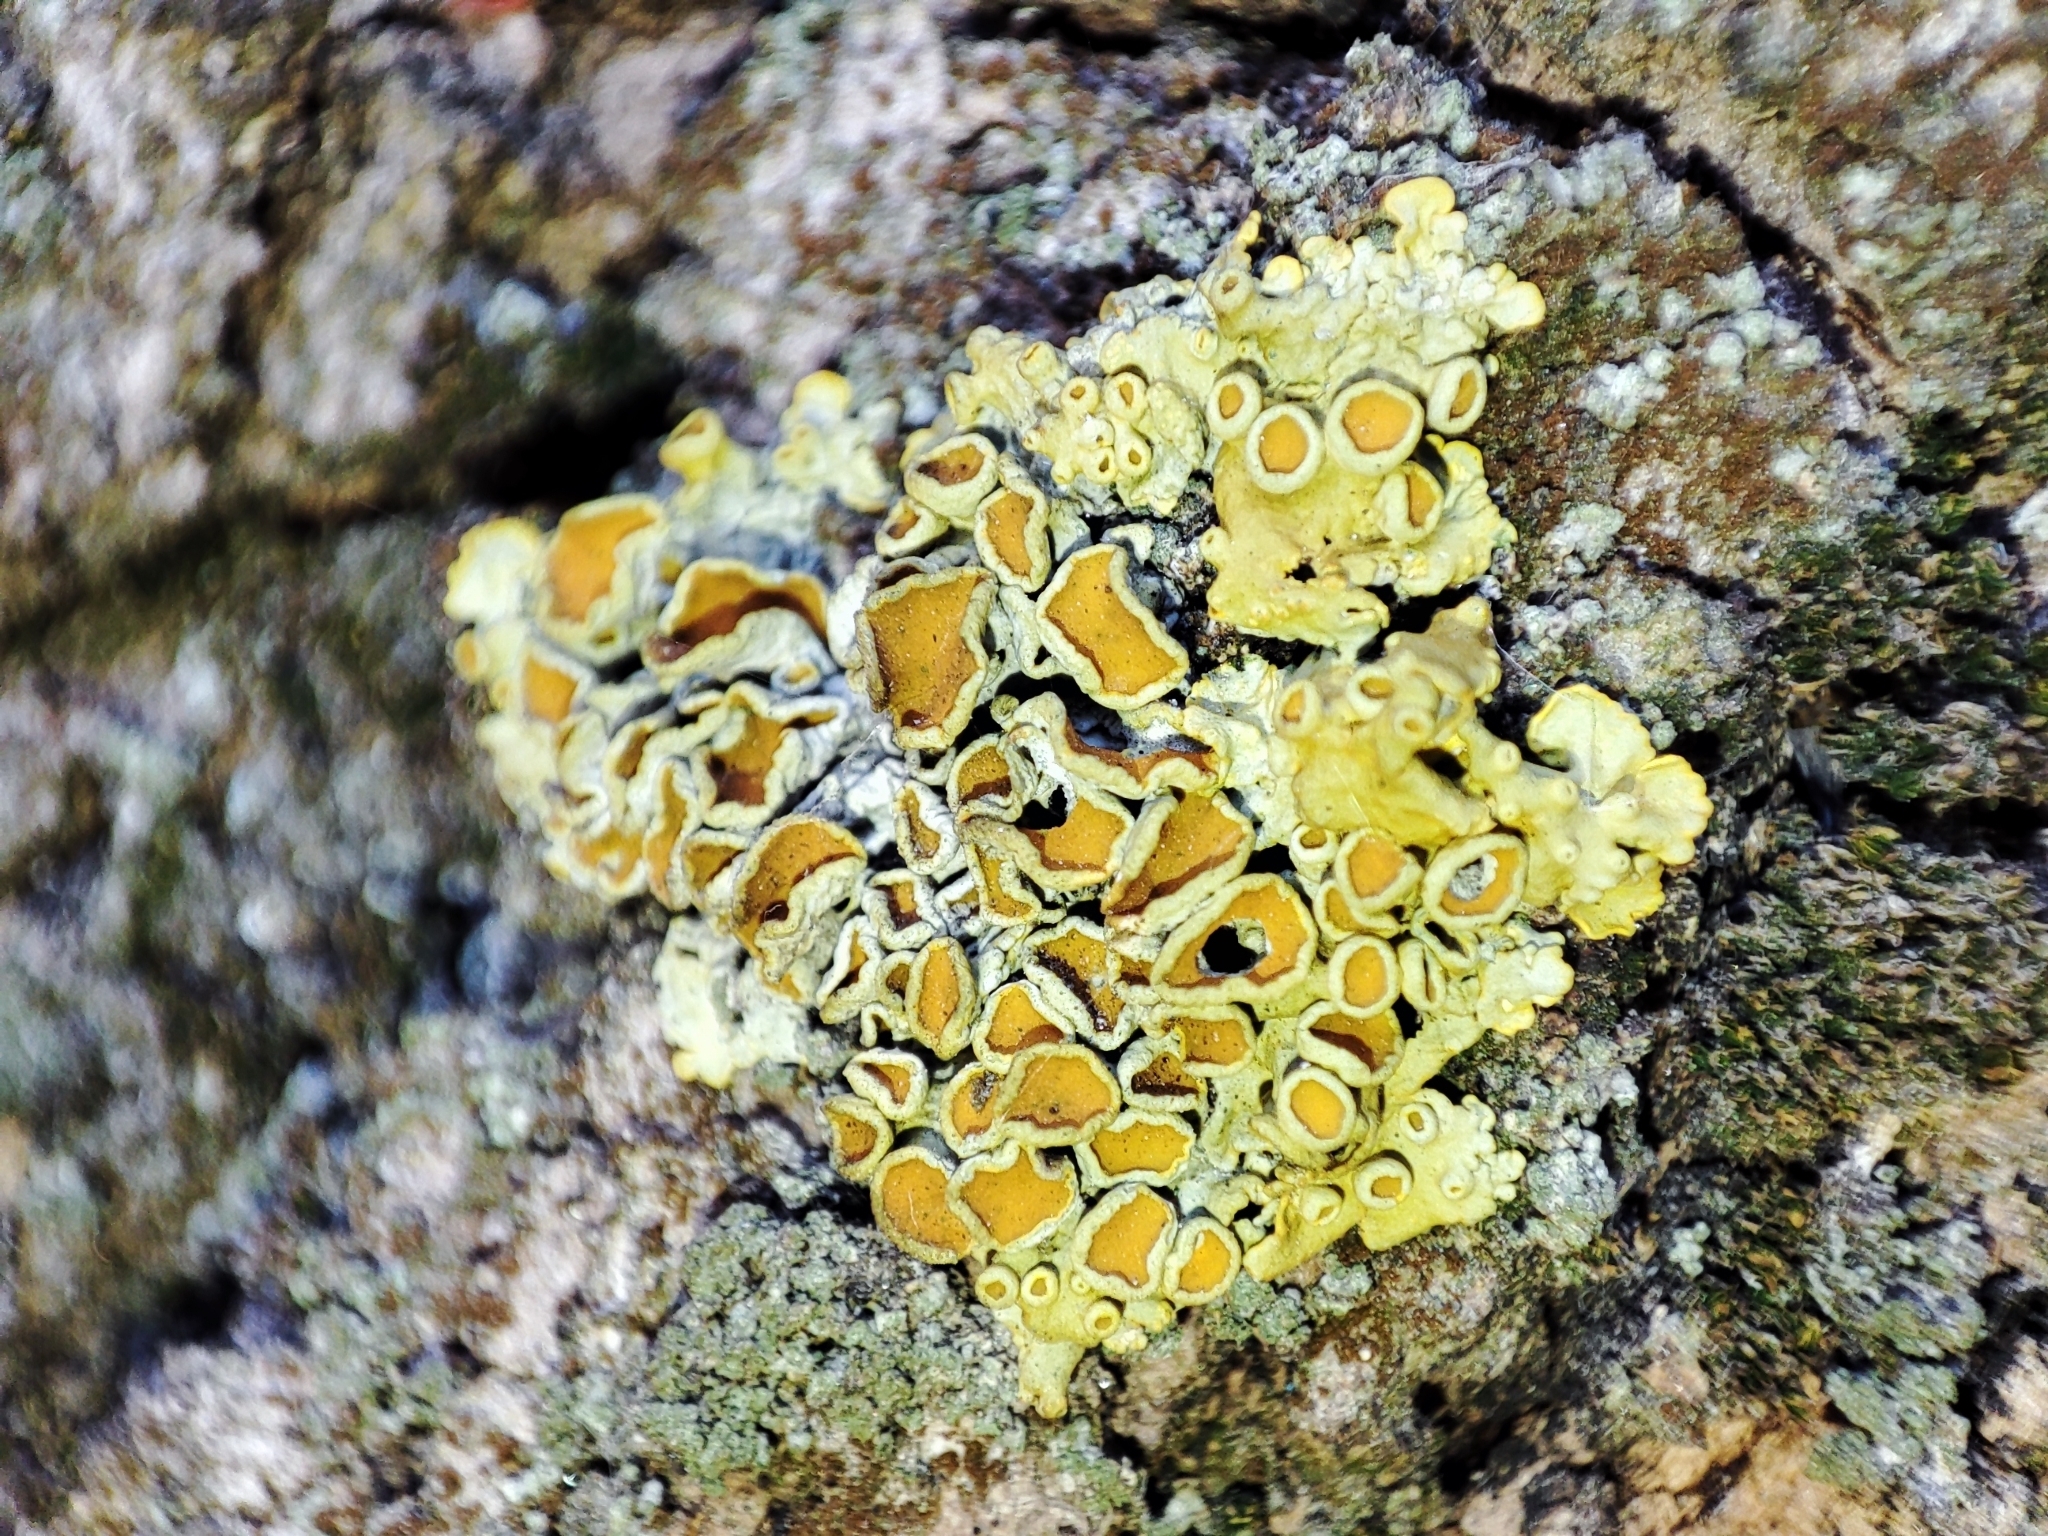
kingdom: Fungi
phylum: Ascomycota
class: Lecanoromycetes
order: Teloschistales
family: Teloschistaceae
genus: Xanthoria
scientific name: Xanthoria parietina
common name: Common orange lichen
